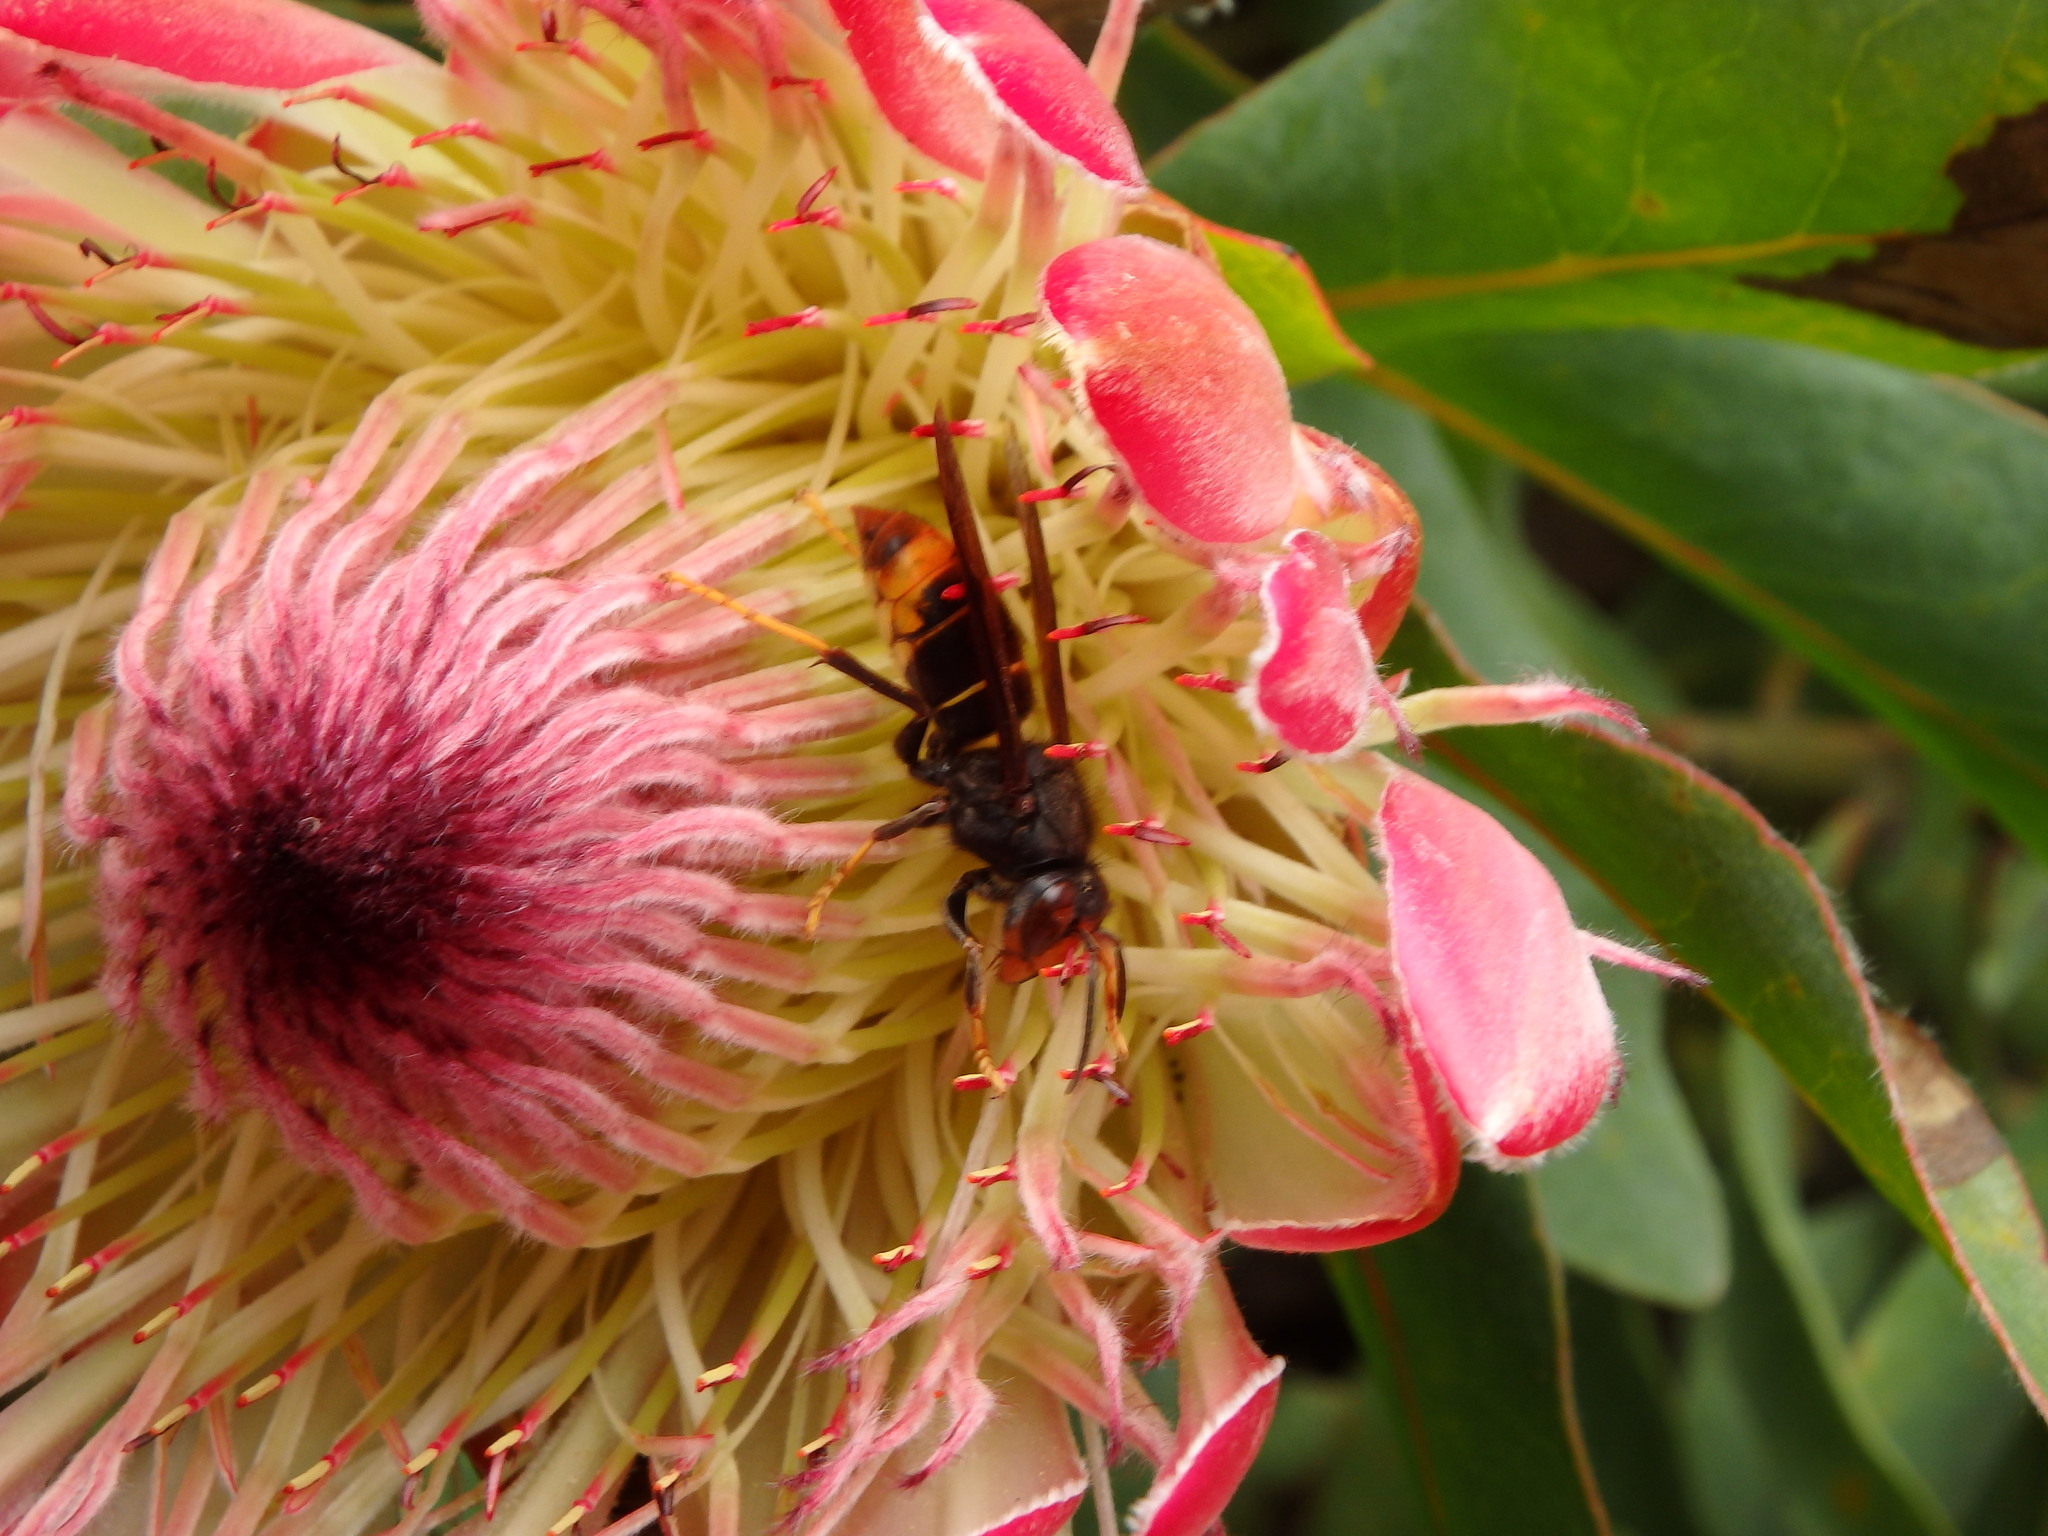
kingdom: Animalia
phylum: Arthropoda
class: Insecta
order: Hymenoptera
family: Vespidae
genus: Vespa
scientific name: Vespa velutina
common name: Asian hornet
